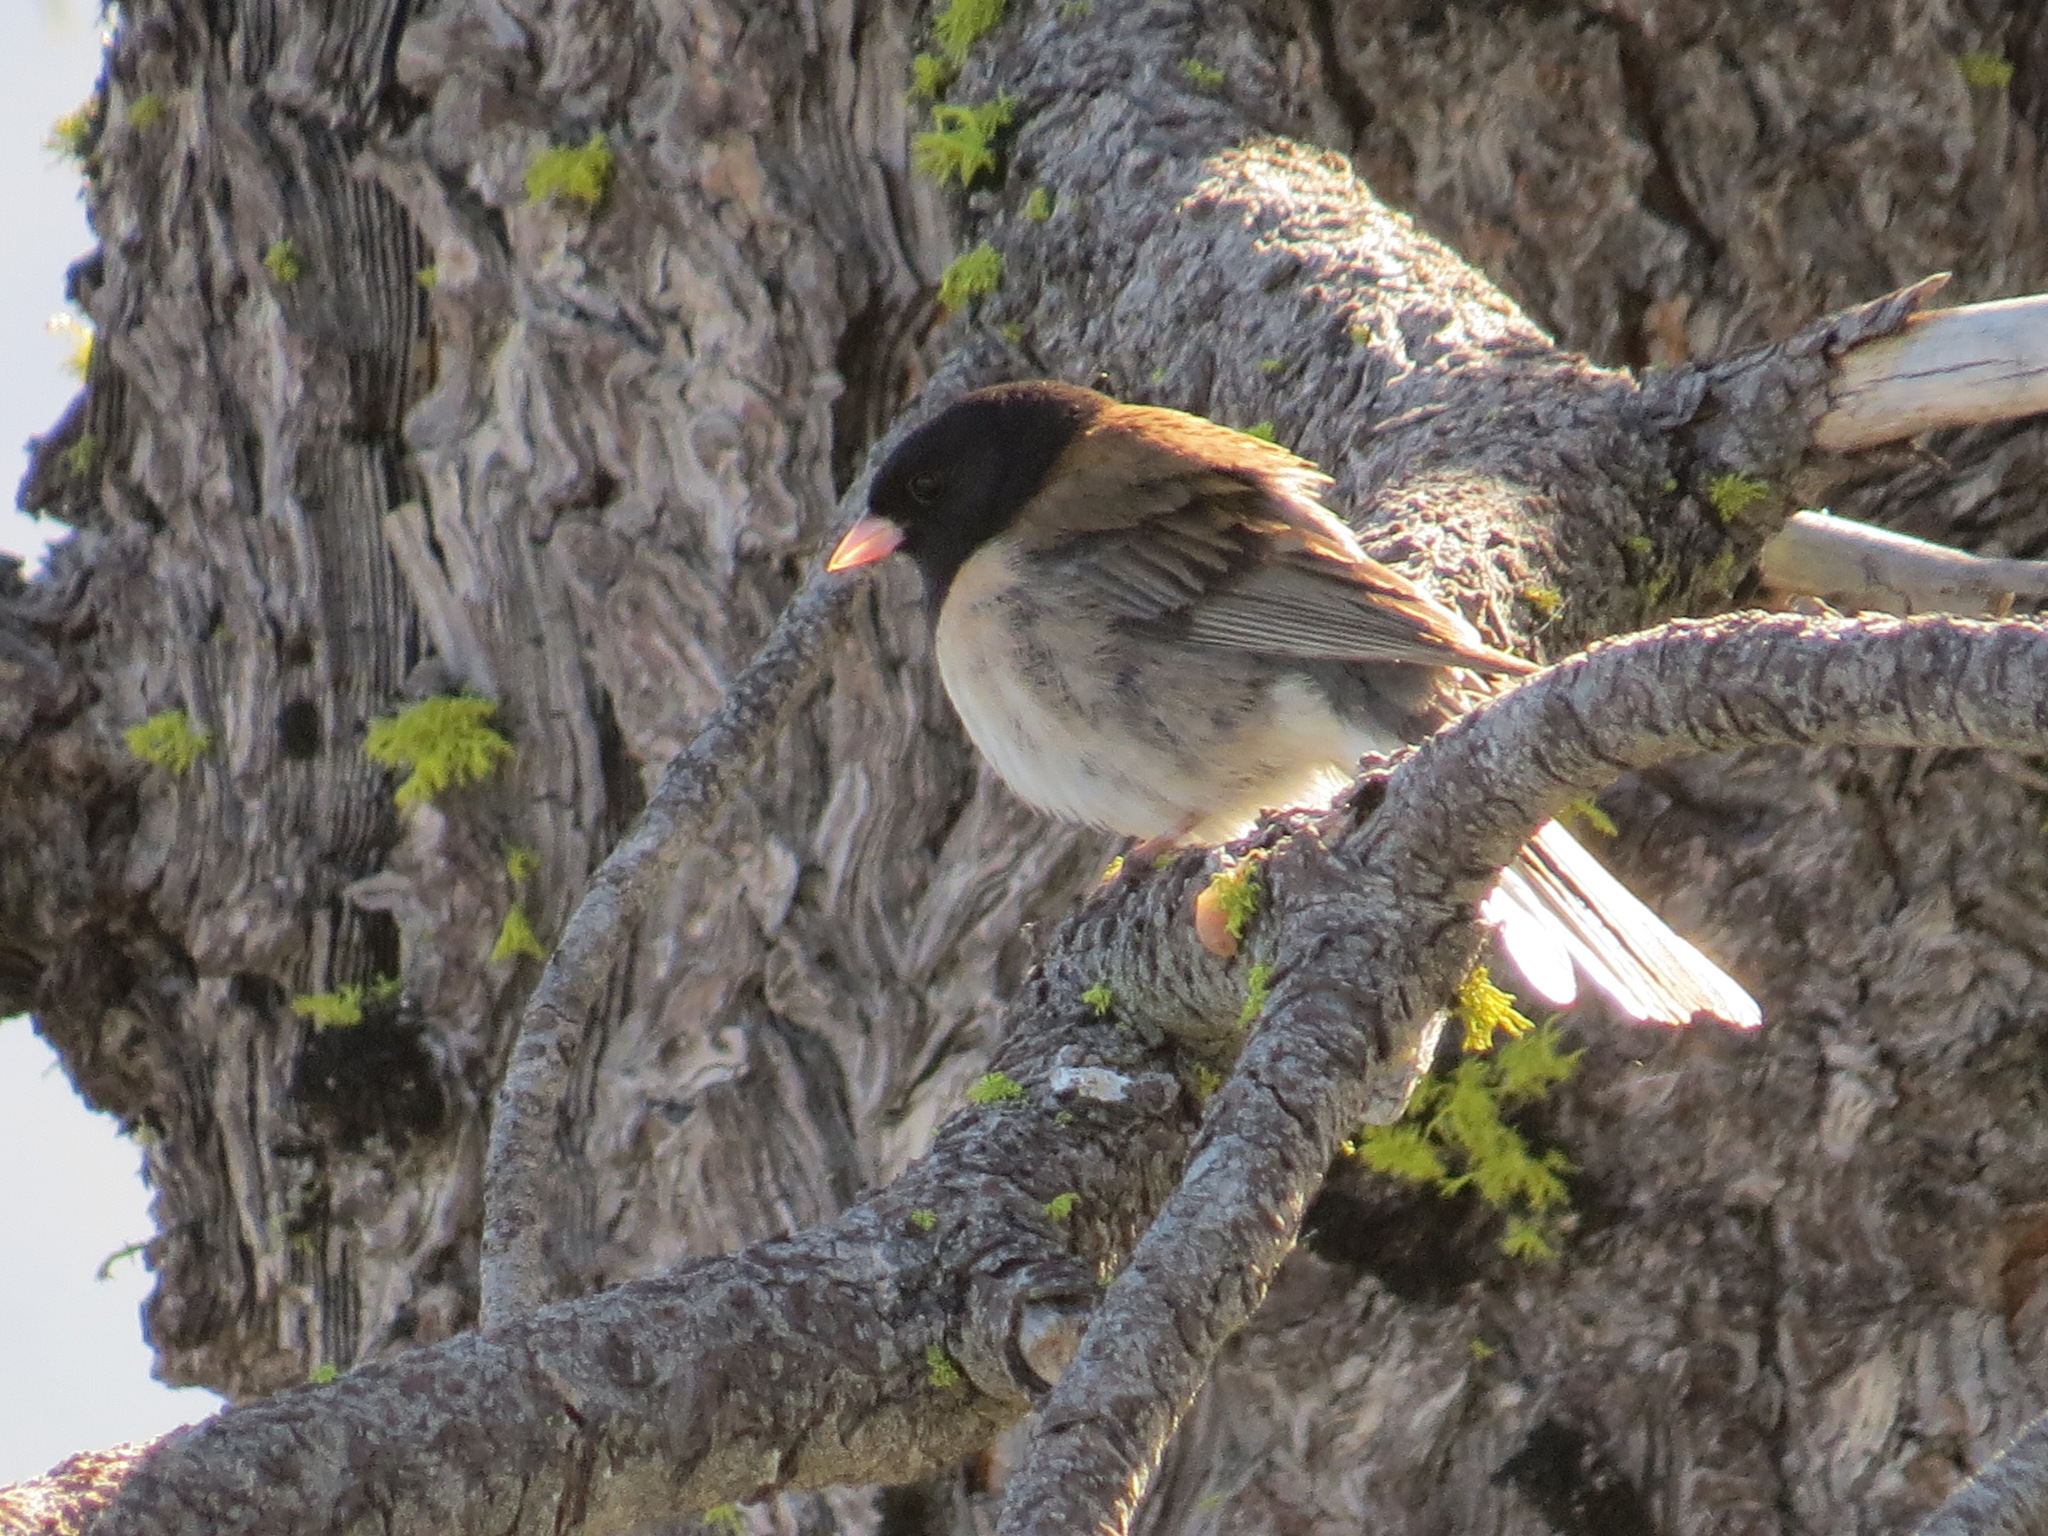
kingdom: Animalia
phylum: Chordata
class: Aves
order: Passeriformes
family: Passerellidae
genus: Junco
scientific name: Junco hyemalis
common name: Dark-eyed junco
